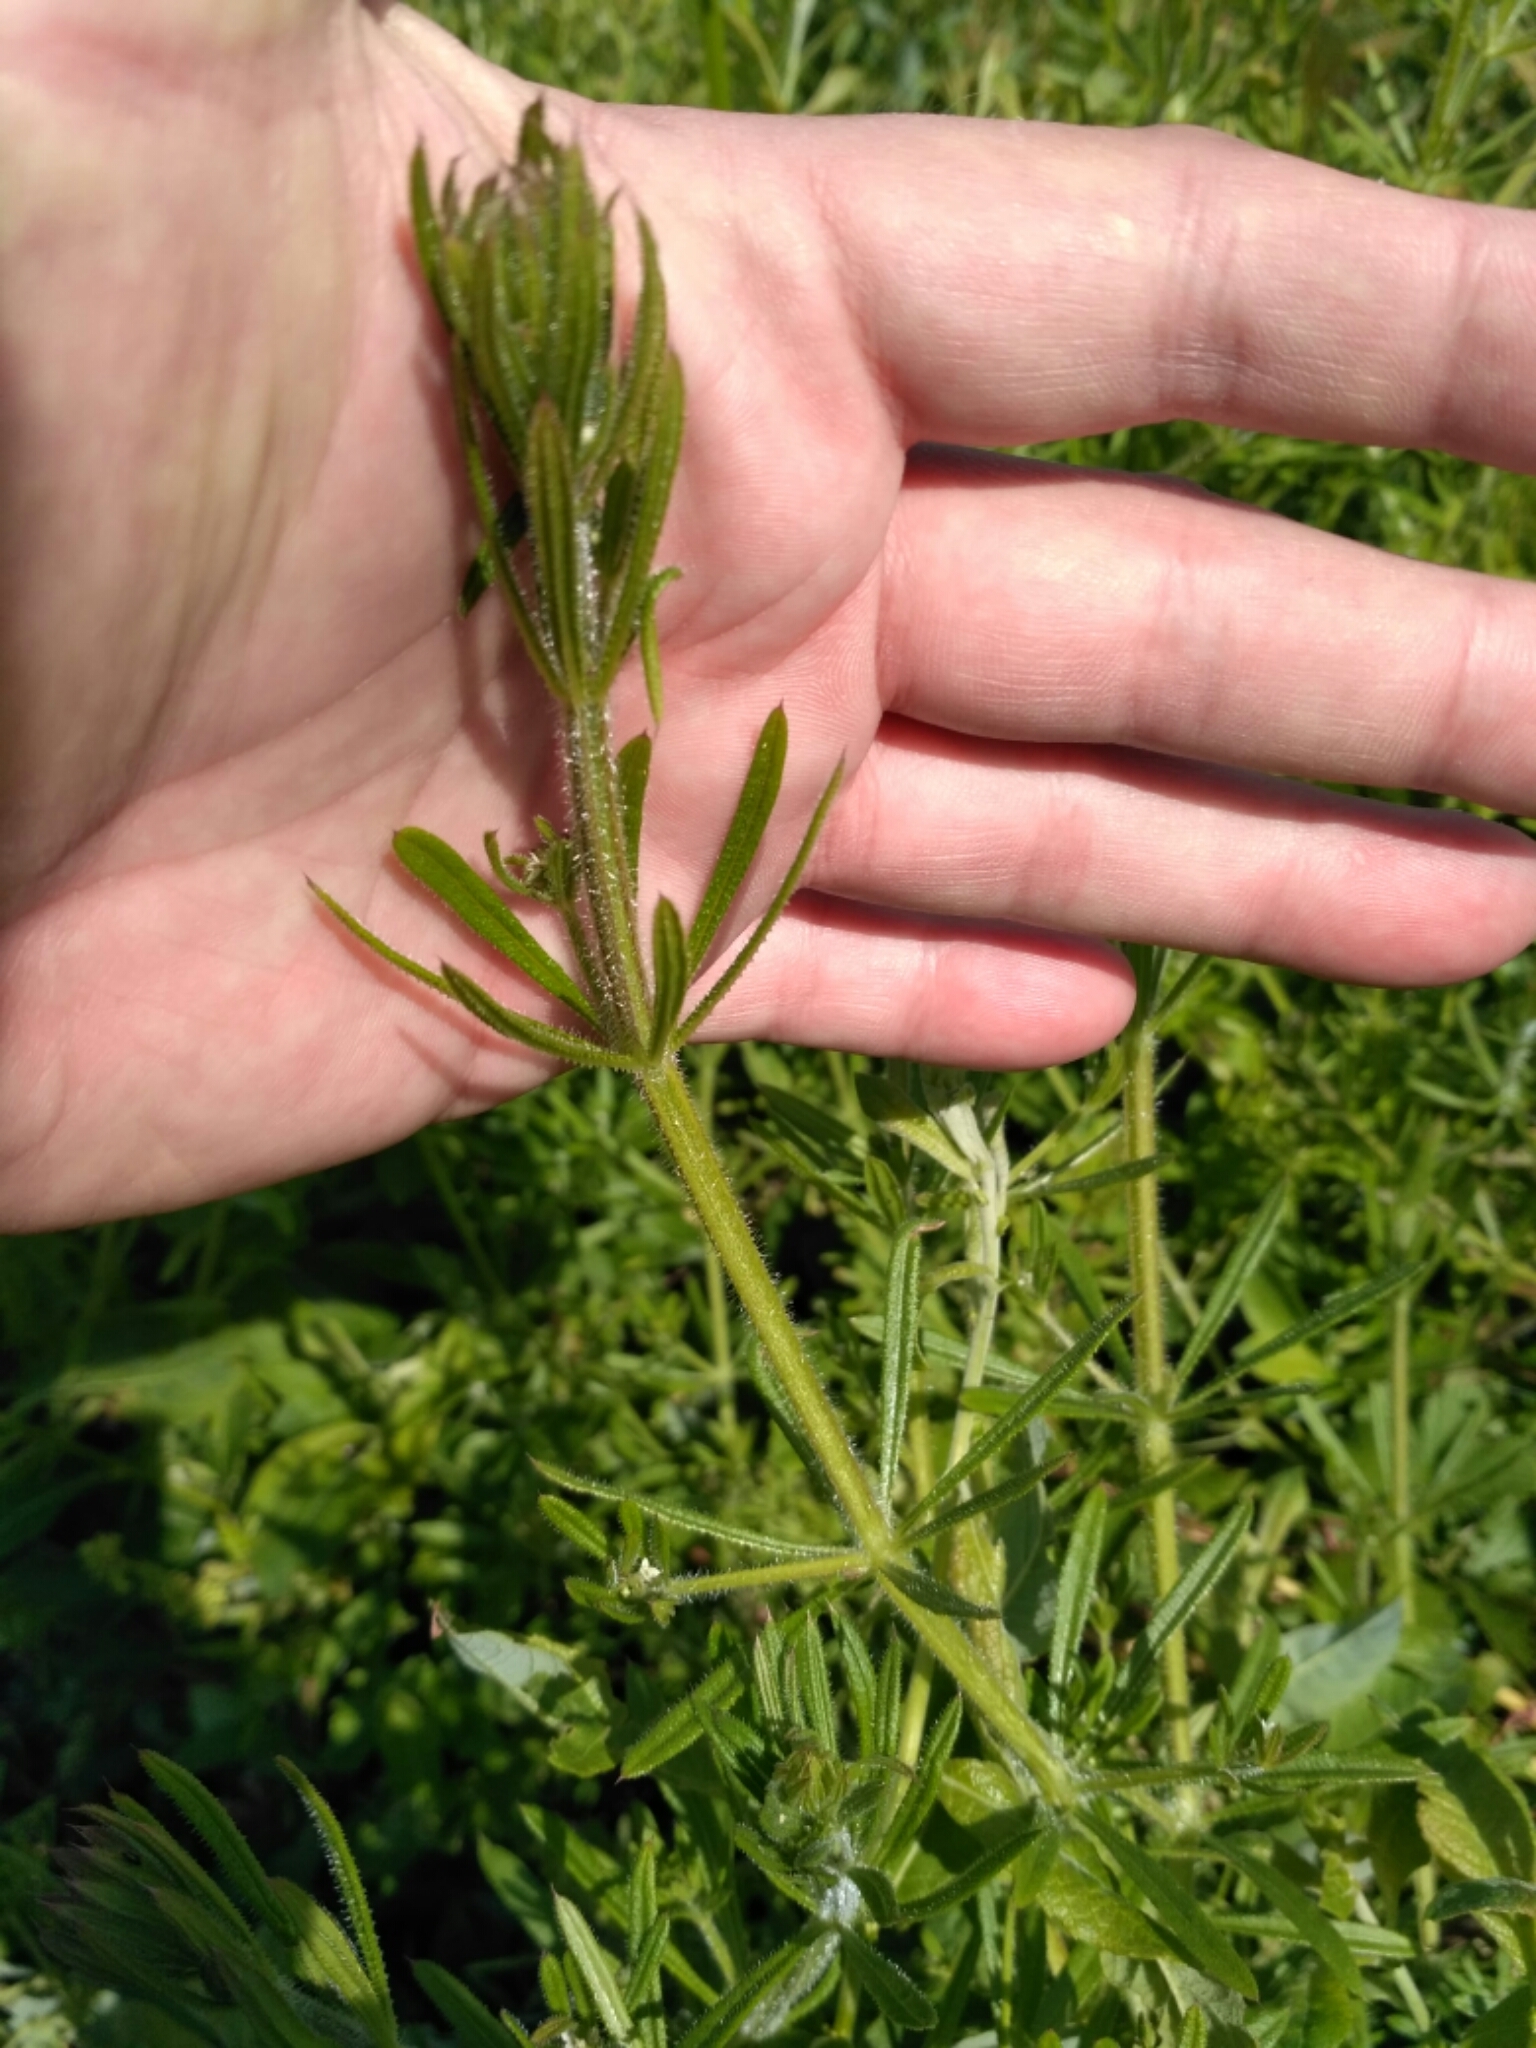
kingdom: Plantae
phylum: Tracheophyta
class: Magnoliopsida
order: Gentianales
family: Rubiaceae
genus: Galium
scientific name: Galium aparine
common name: Cleavers
